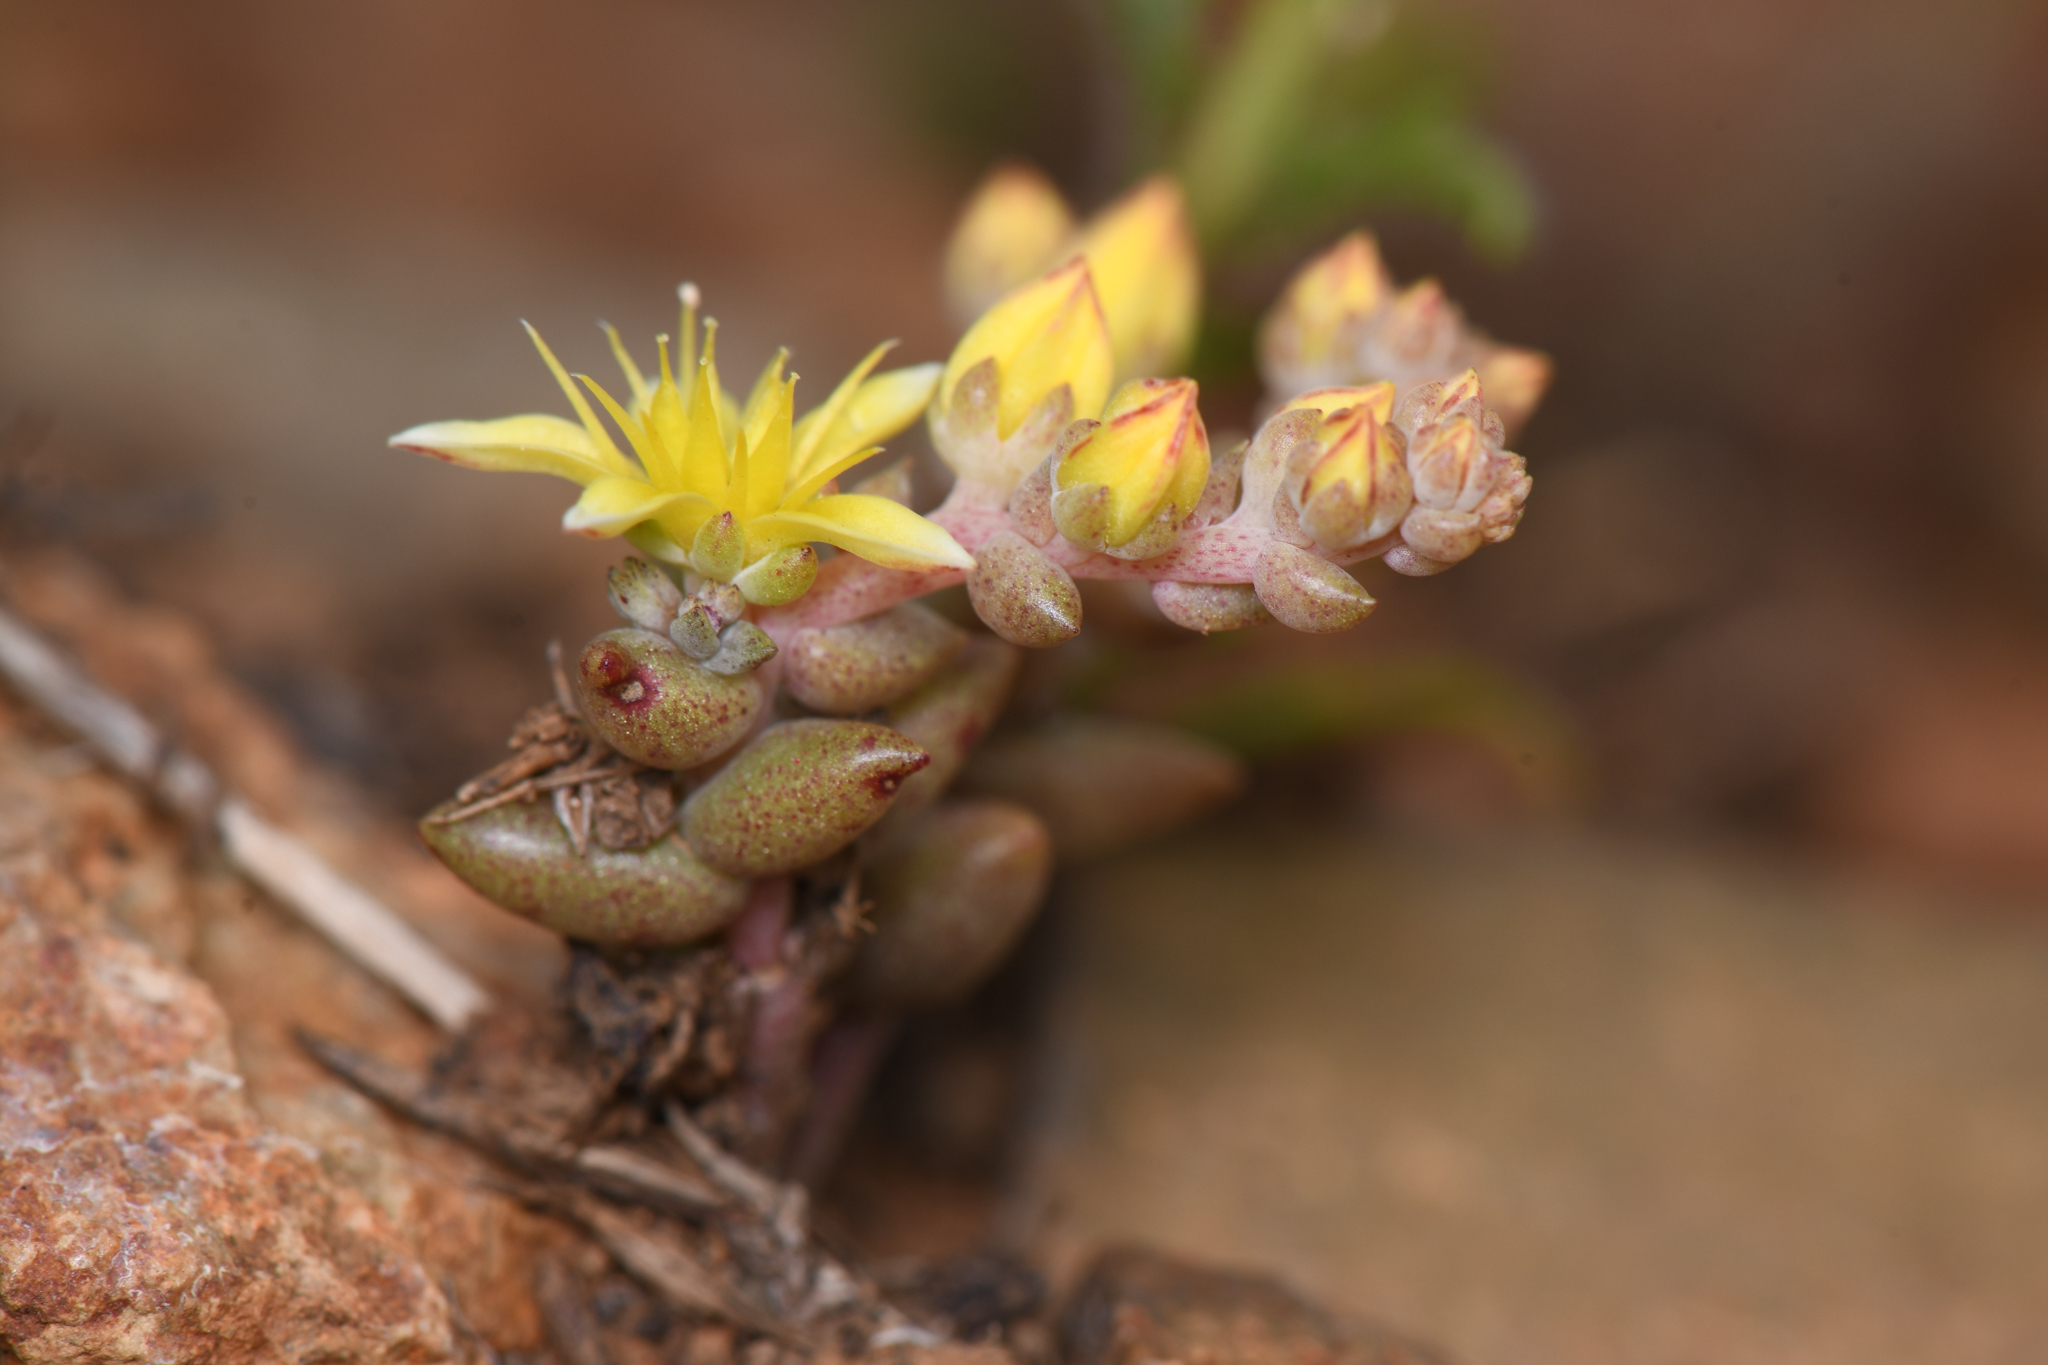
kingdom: Plantae
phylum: Tracheophyta
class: Magnoliopsida
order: Saxifragales
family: Crassulaceae
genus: Dudleya
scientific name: Dudleya variegata
